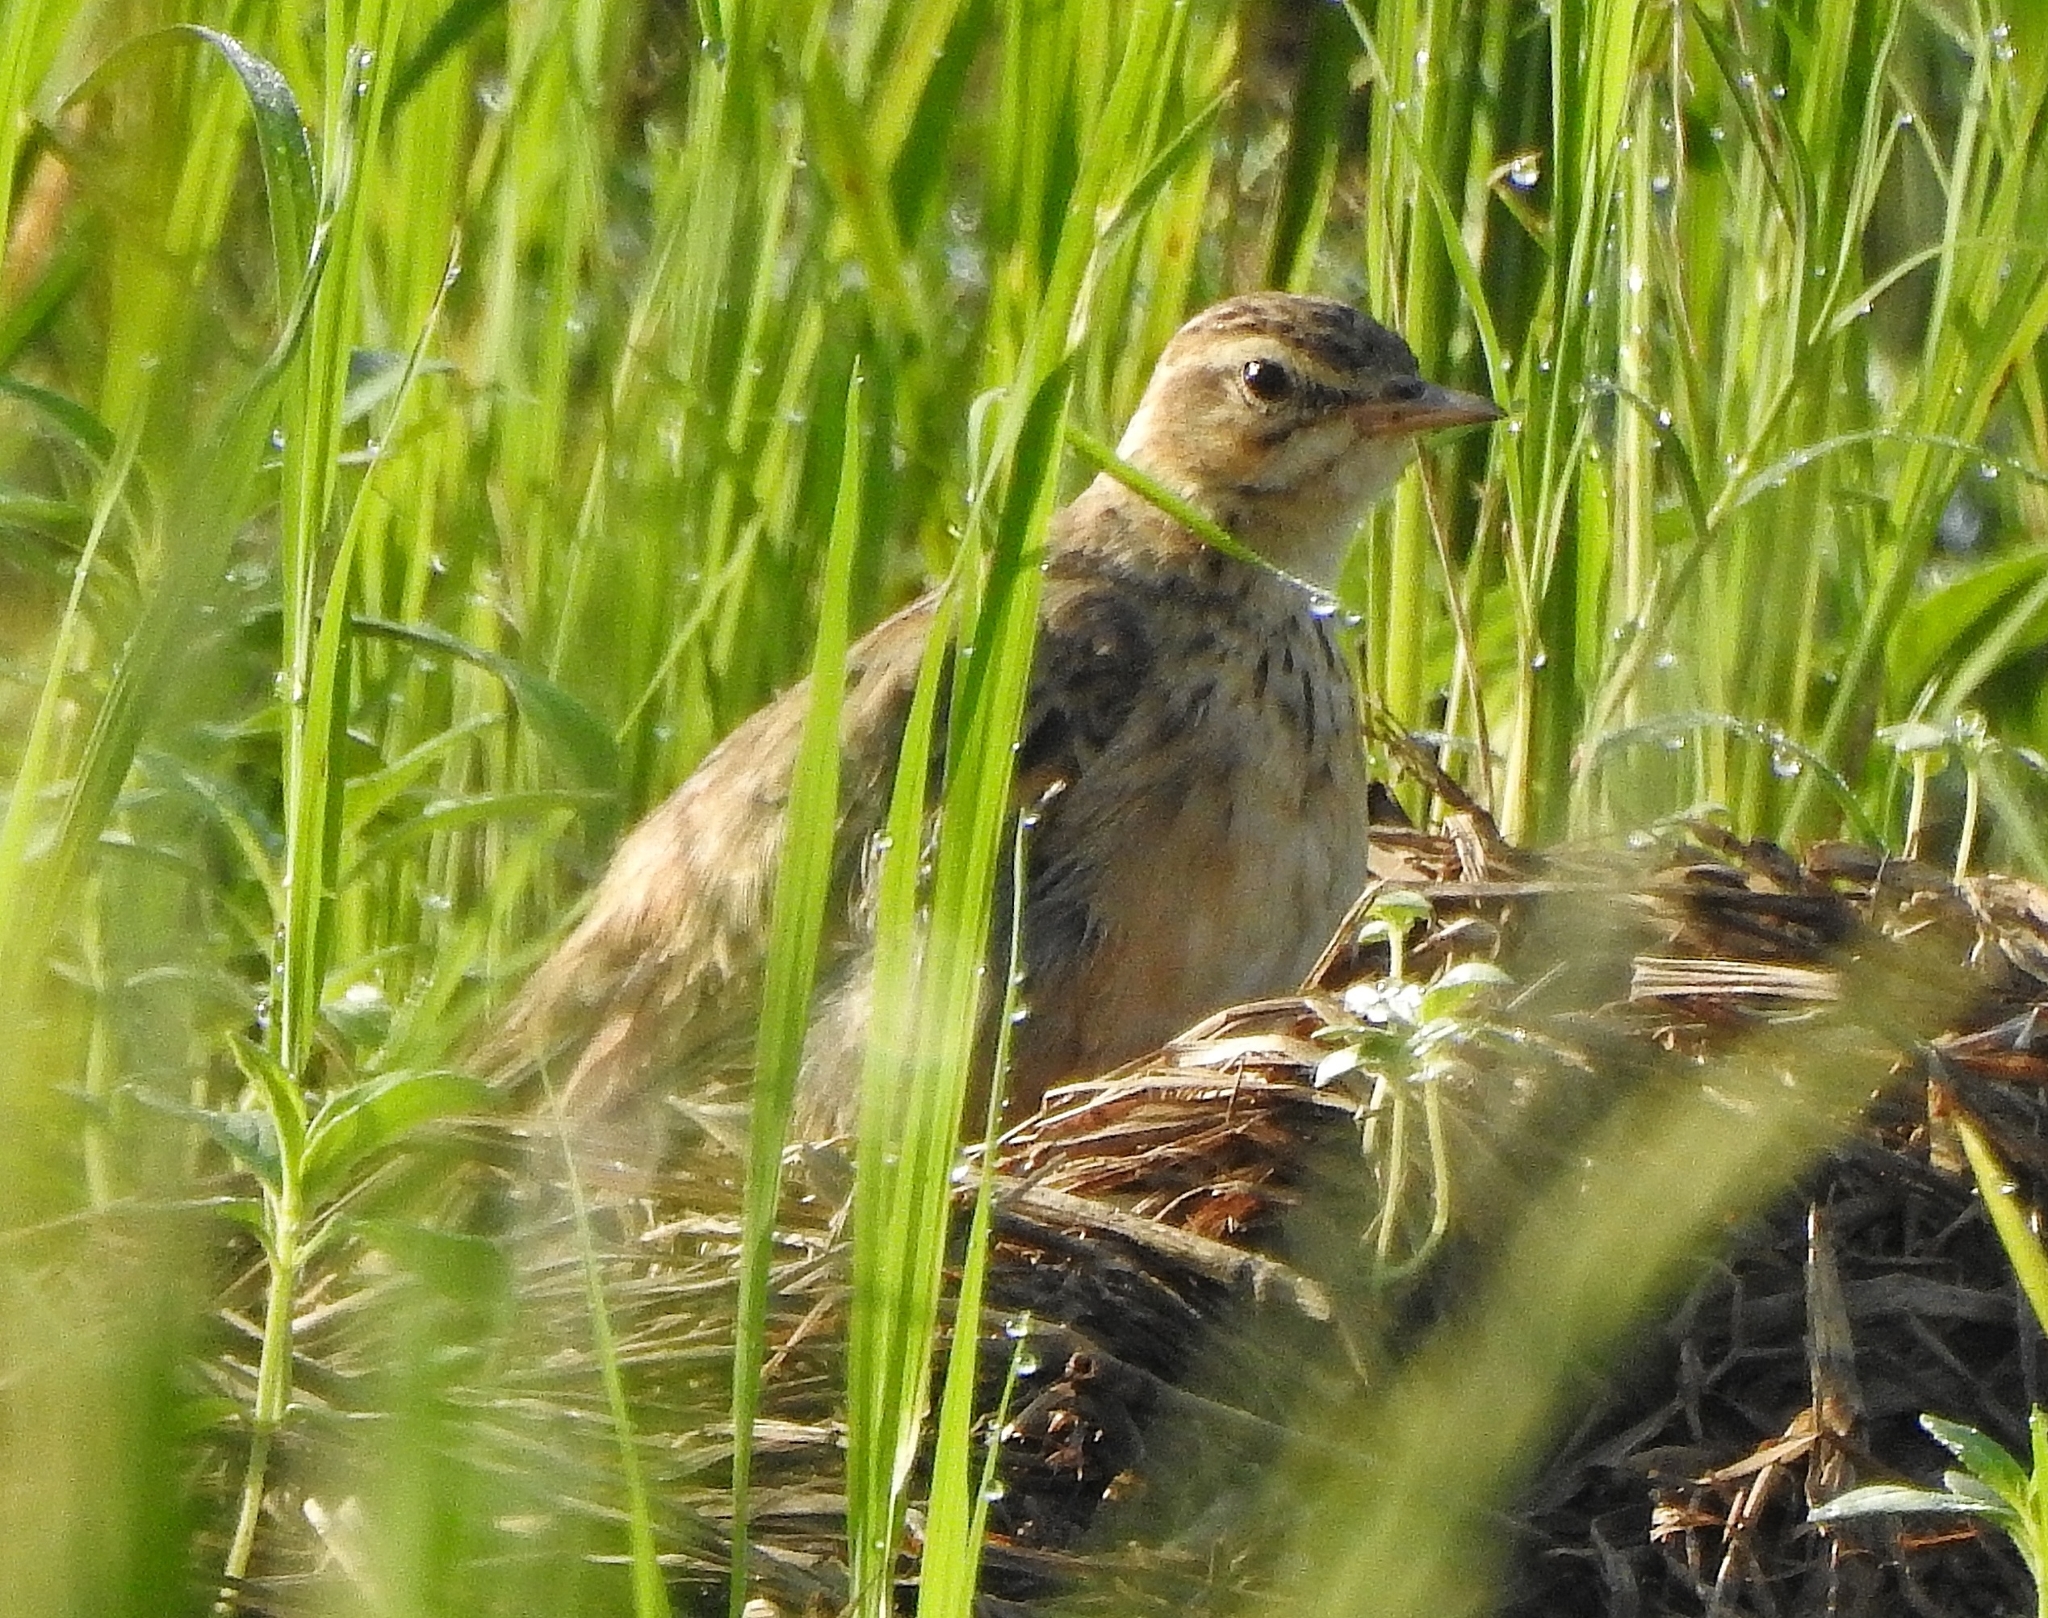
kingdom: Animalia
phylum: Chordata
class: Aves
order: Passeriformes
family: Motacillidae
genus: Anthus
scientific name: Anthus rufulus
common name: Paddyfield pipit
